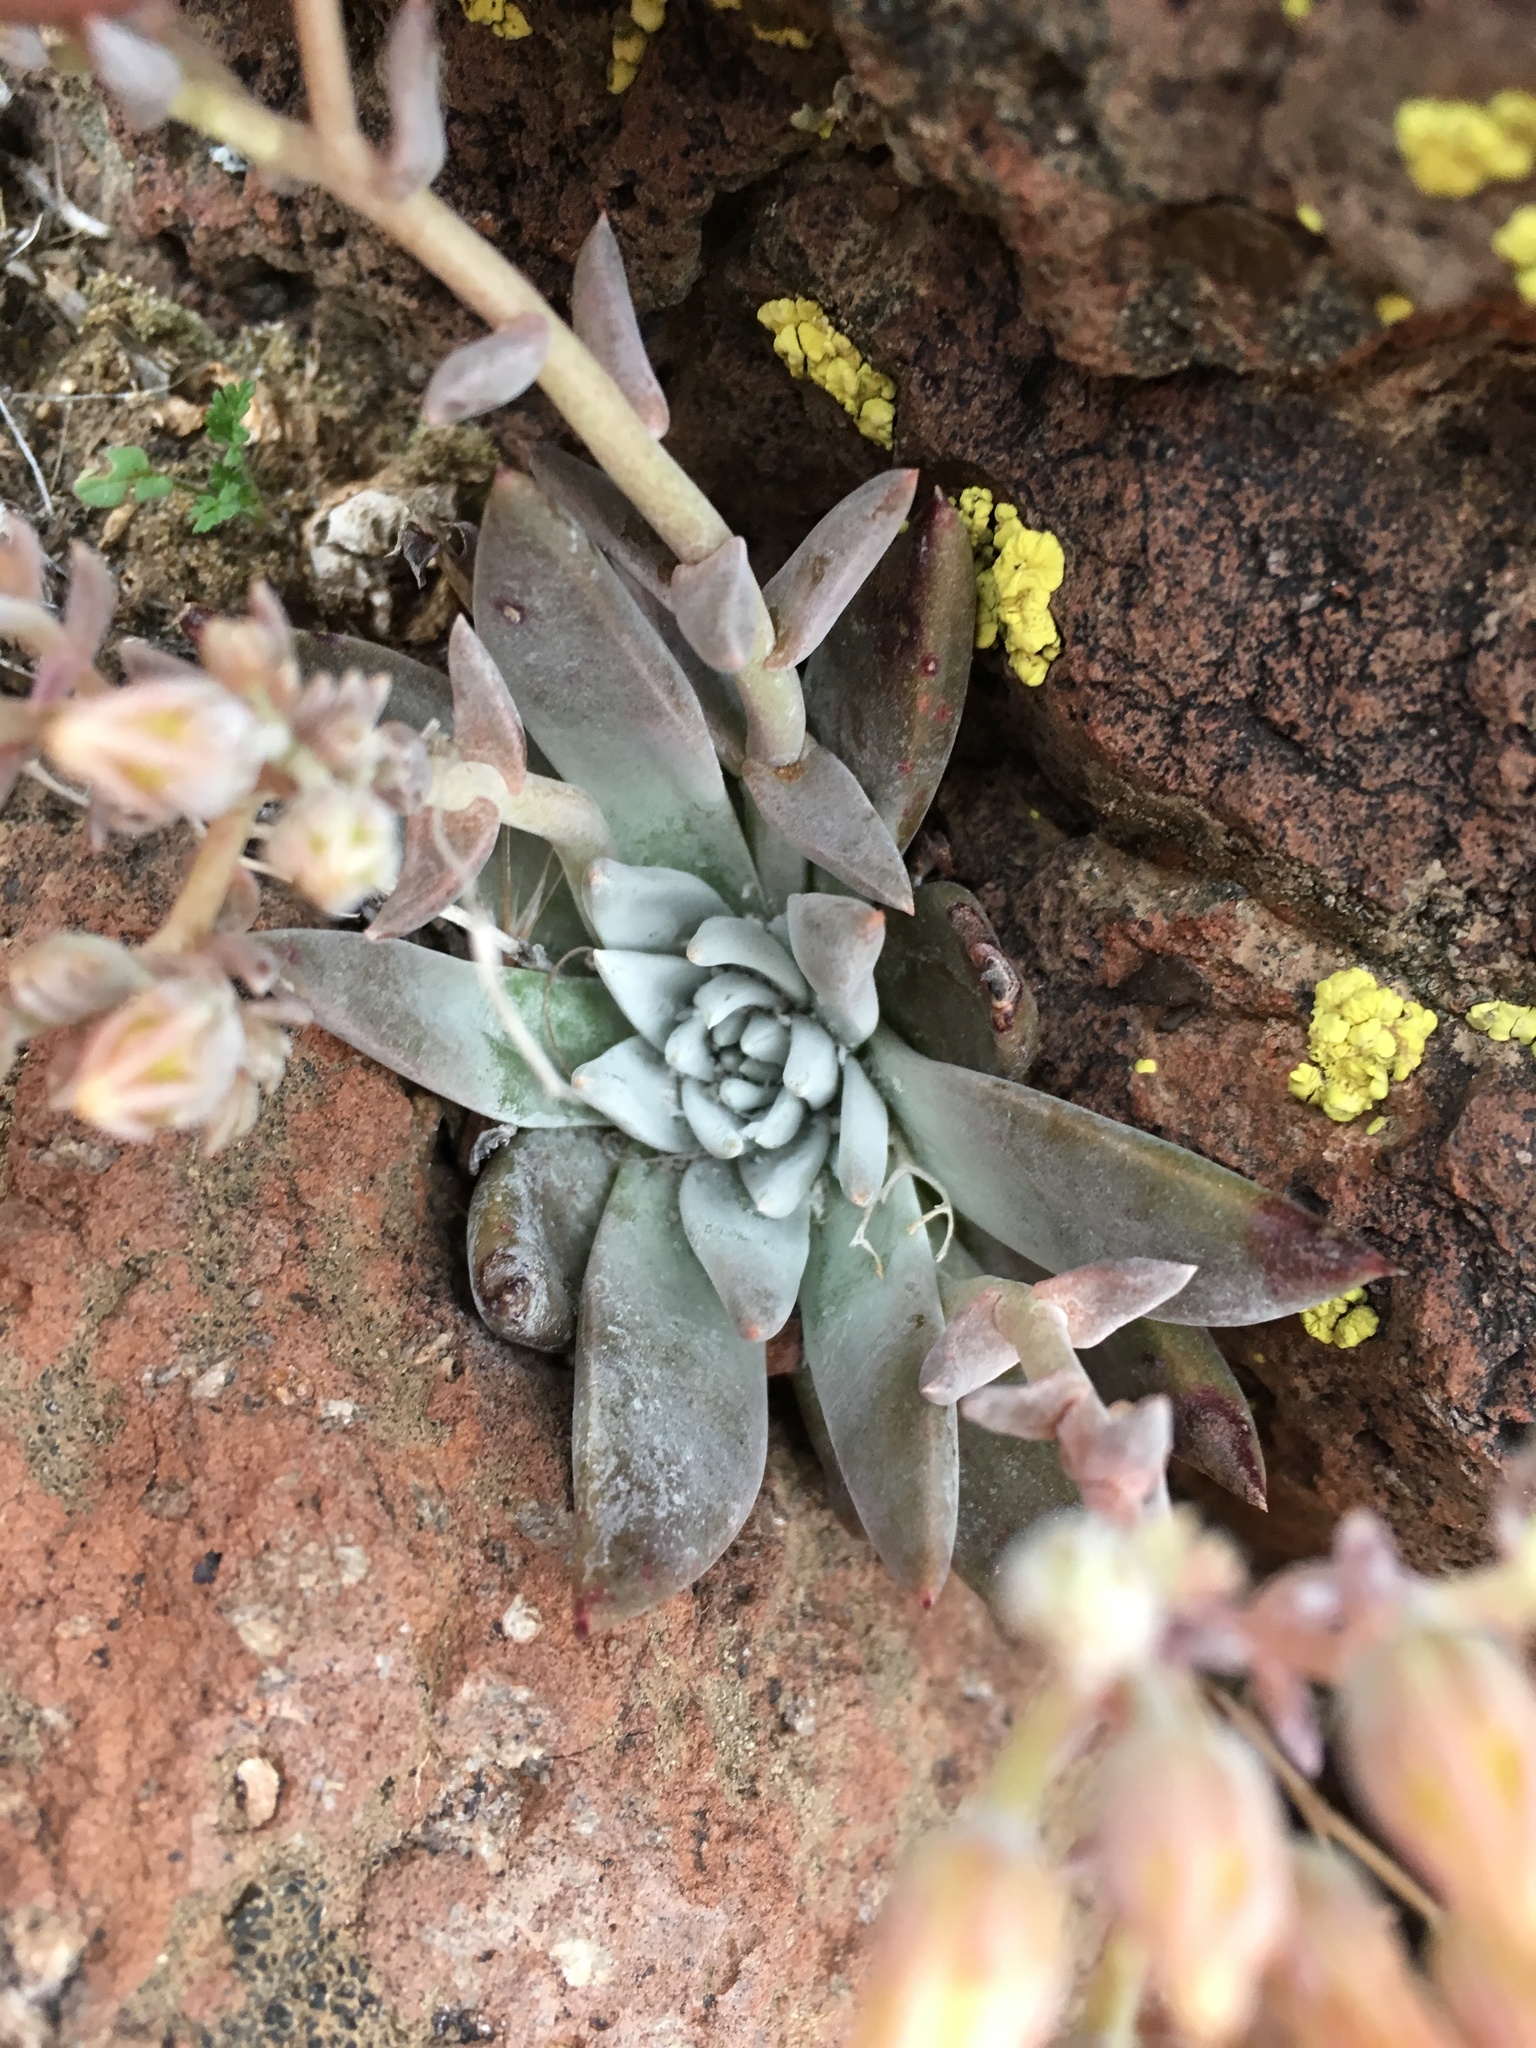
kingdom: Plantae
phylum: Tracheophyta
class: Magnoliopsida
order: Saxifragales
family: Crassulaceae
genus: Dudleya
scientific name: Dudleya abramsii
